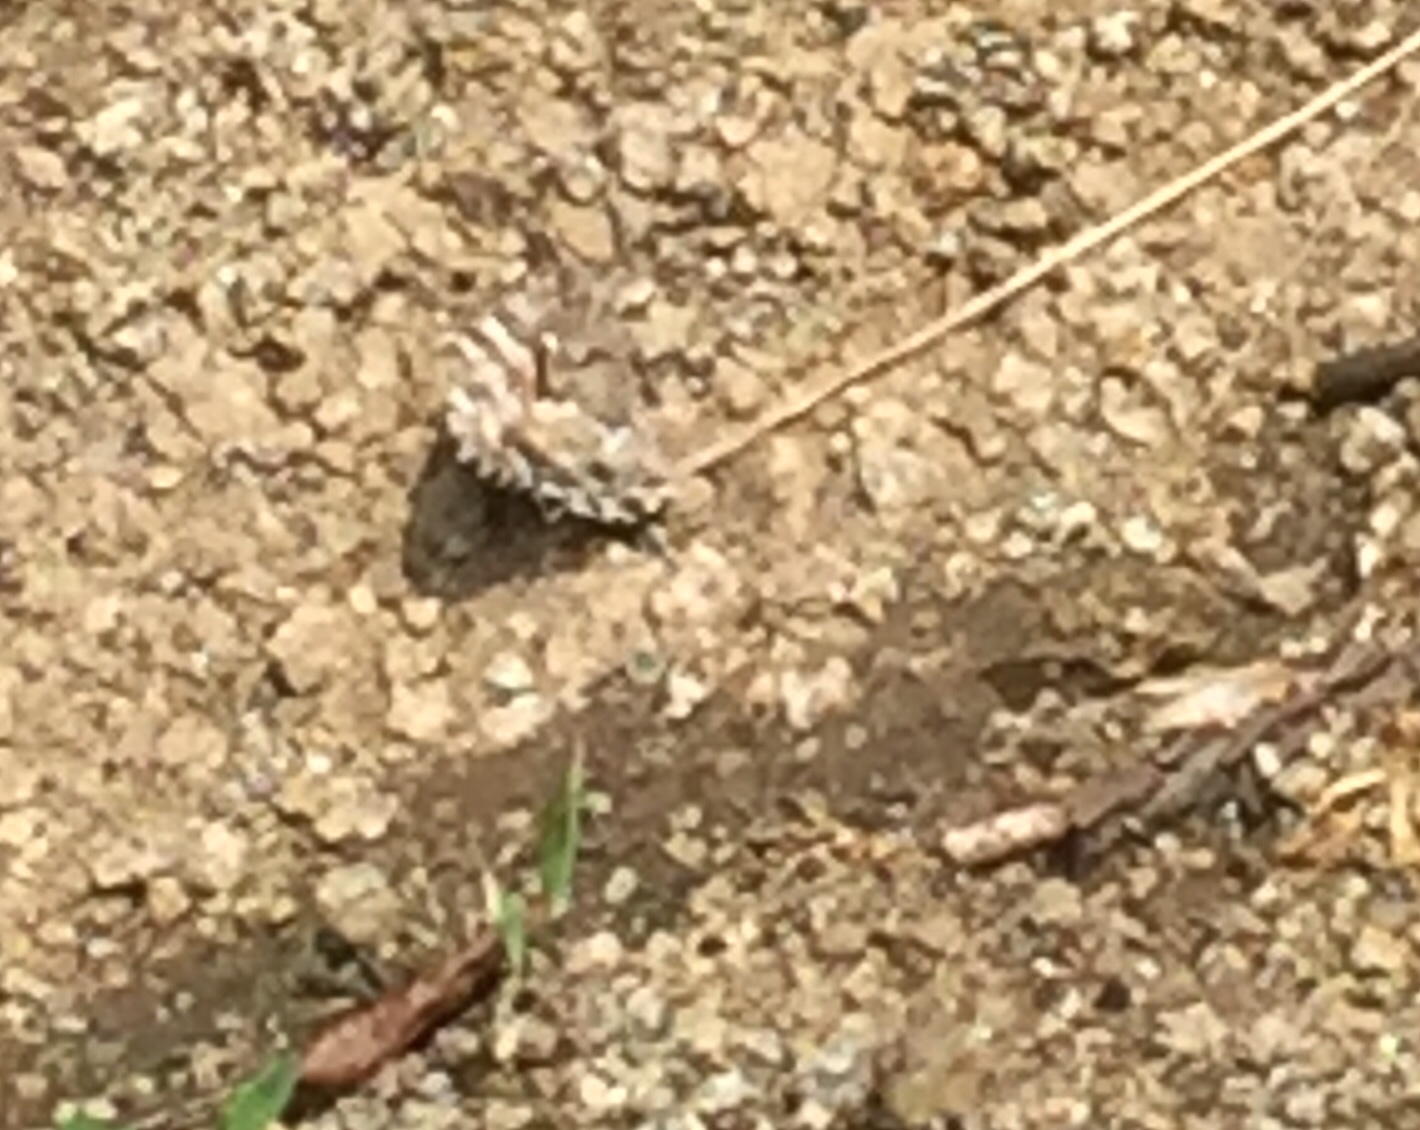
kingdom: Animalia
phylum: Arthropoda
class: Insecta
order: Lepidoptera
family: Nymphalidae
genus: Hipparchia
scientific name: Hipparchia pellucida
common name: Lesbos grayling
